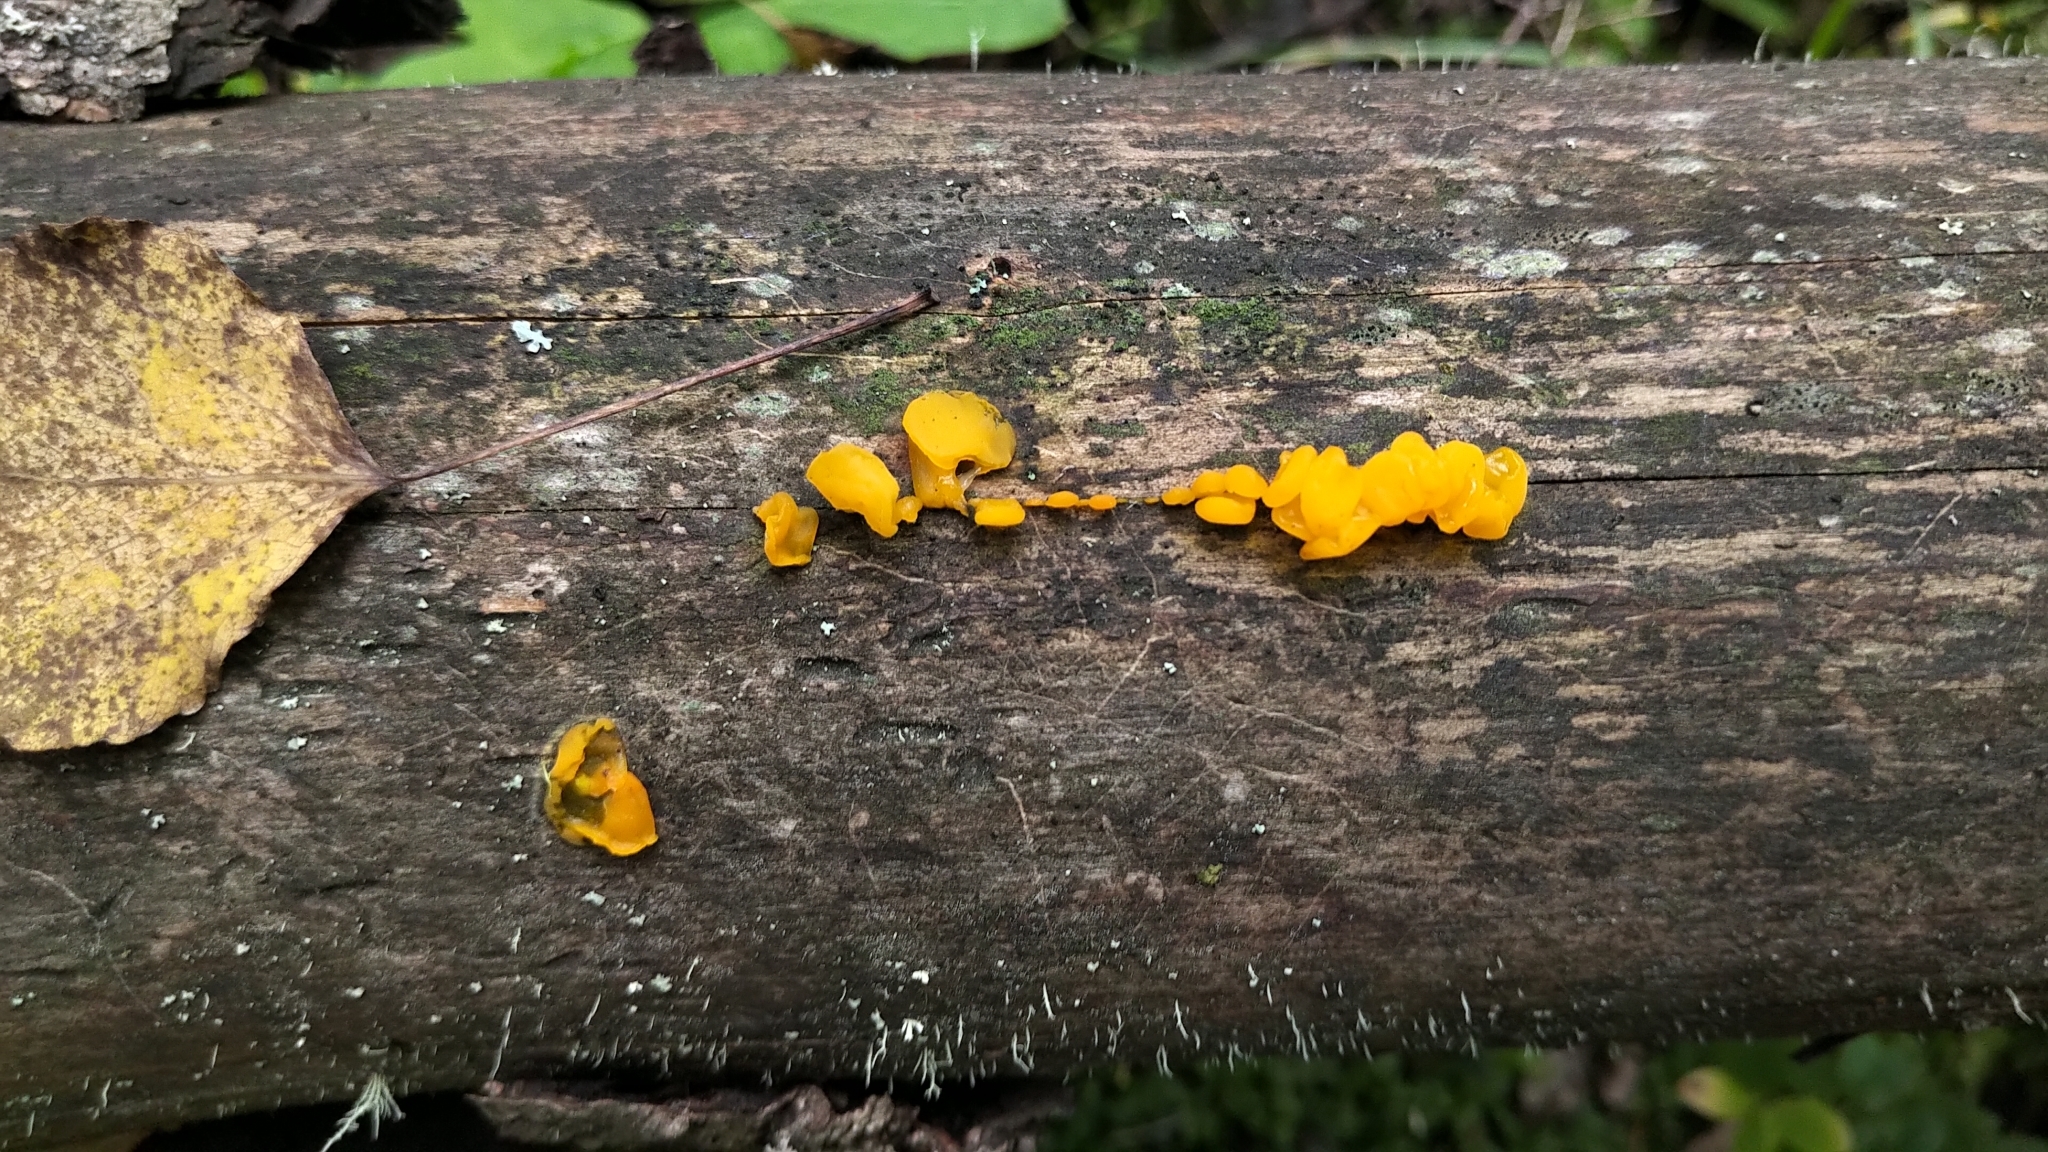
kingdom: Fungi
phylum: Basidiomycota
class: Dacrymycetes
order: Dacrymycetales
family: Dacrymycetaceae
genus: Dacrymyces
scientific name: Dacrymyces chrysospermus
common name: Orange jelly spot
